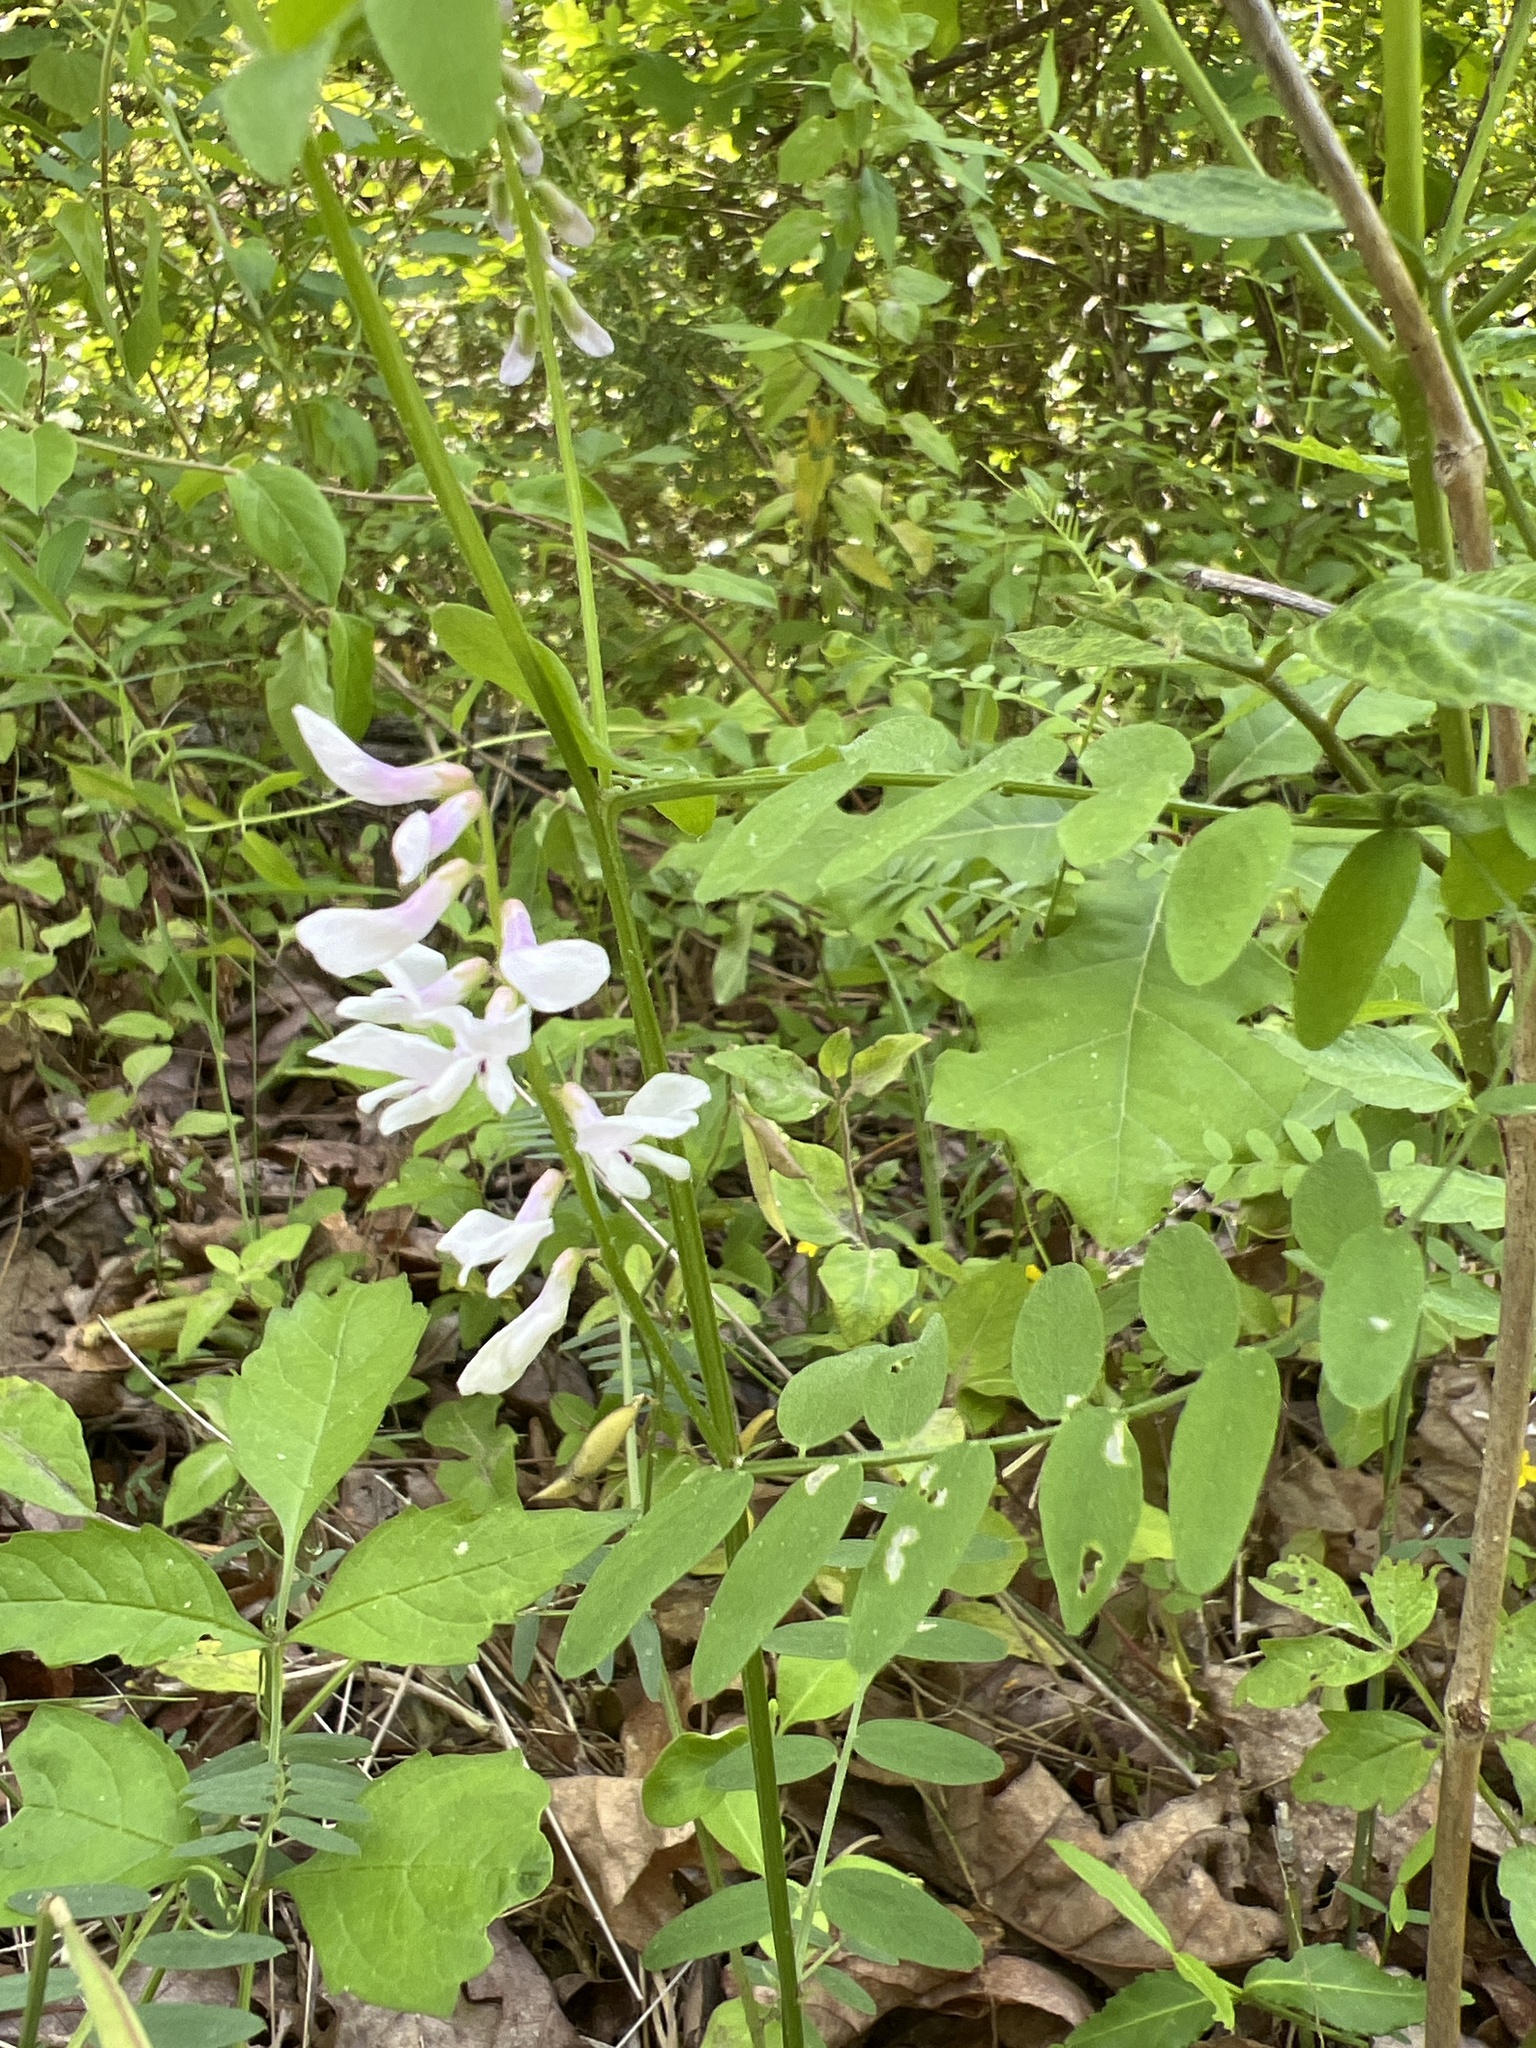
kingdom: Plantae
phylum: Tracheophyta
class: Magnoliopsida
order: Fabales
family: Fabaceae
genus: Vicia
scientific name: Vicia caroliniana
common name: Carolina vetch
